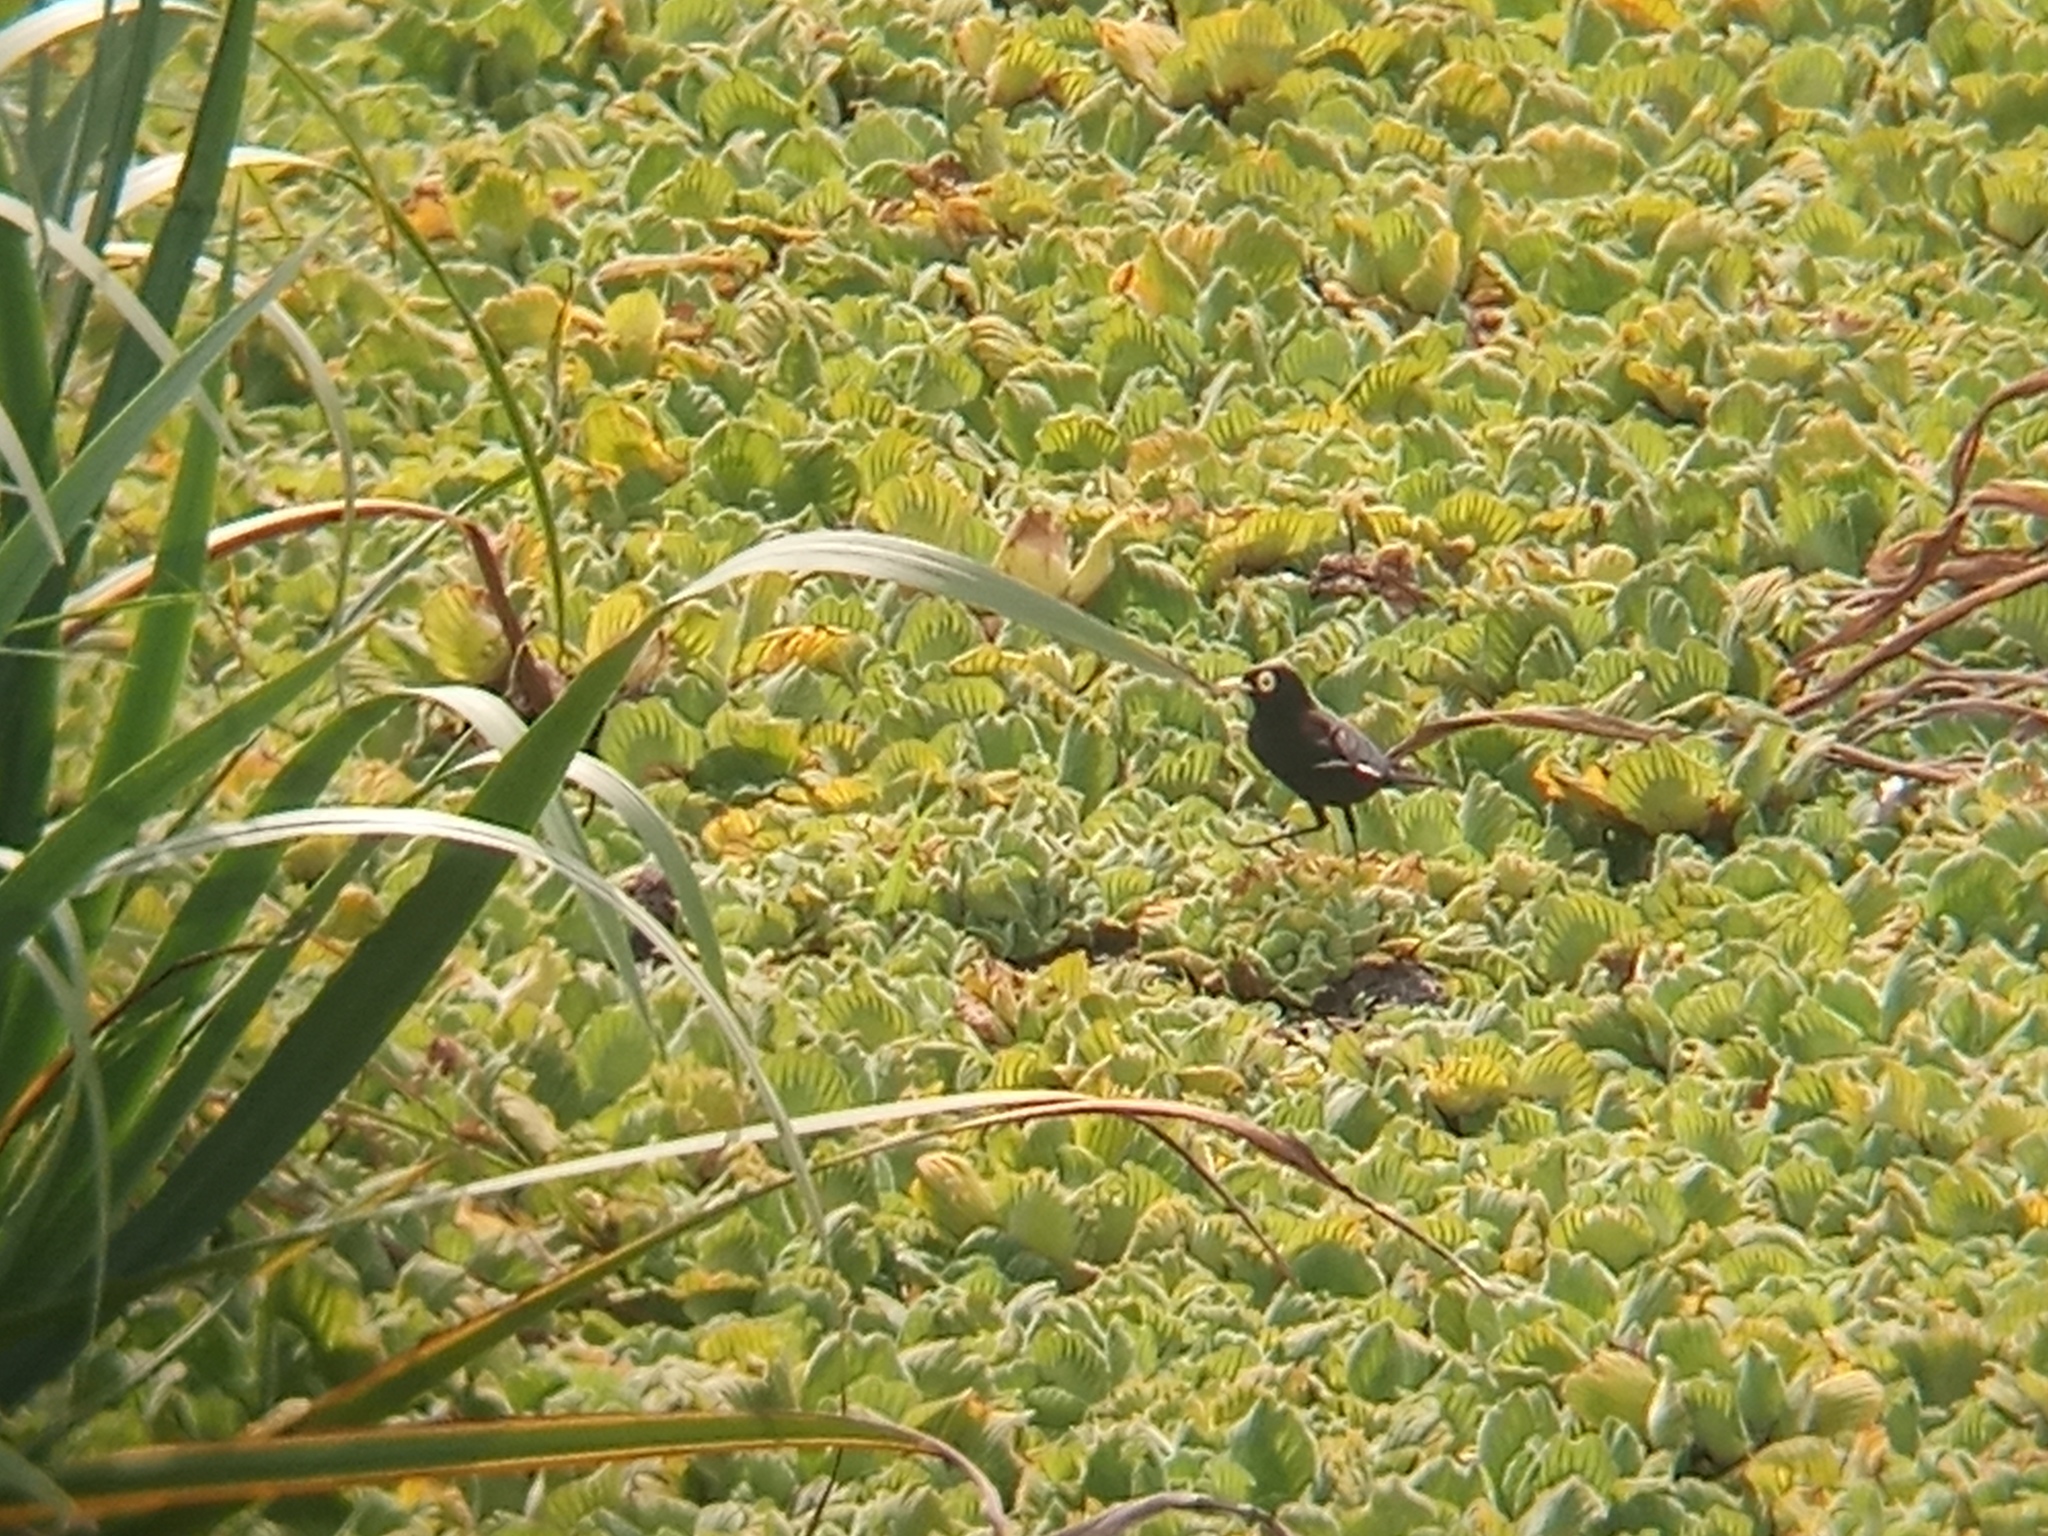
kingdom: Animalia
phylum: Chordata
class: Aves
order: Passeriformes
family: Tyrannidae
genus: Hymenops
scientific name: Hymenops perspicillatus
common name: Spectacled tyrant
